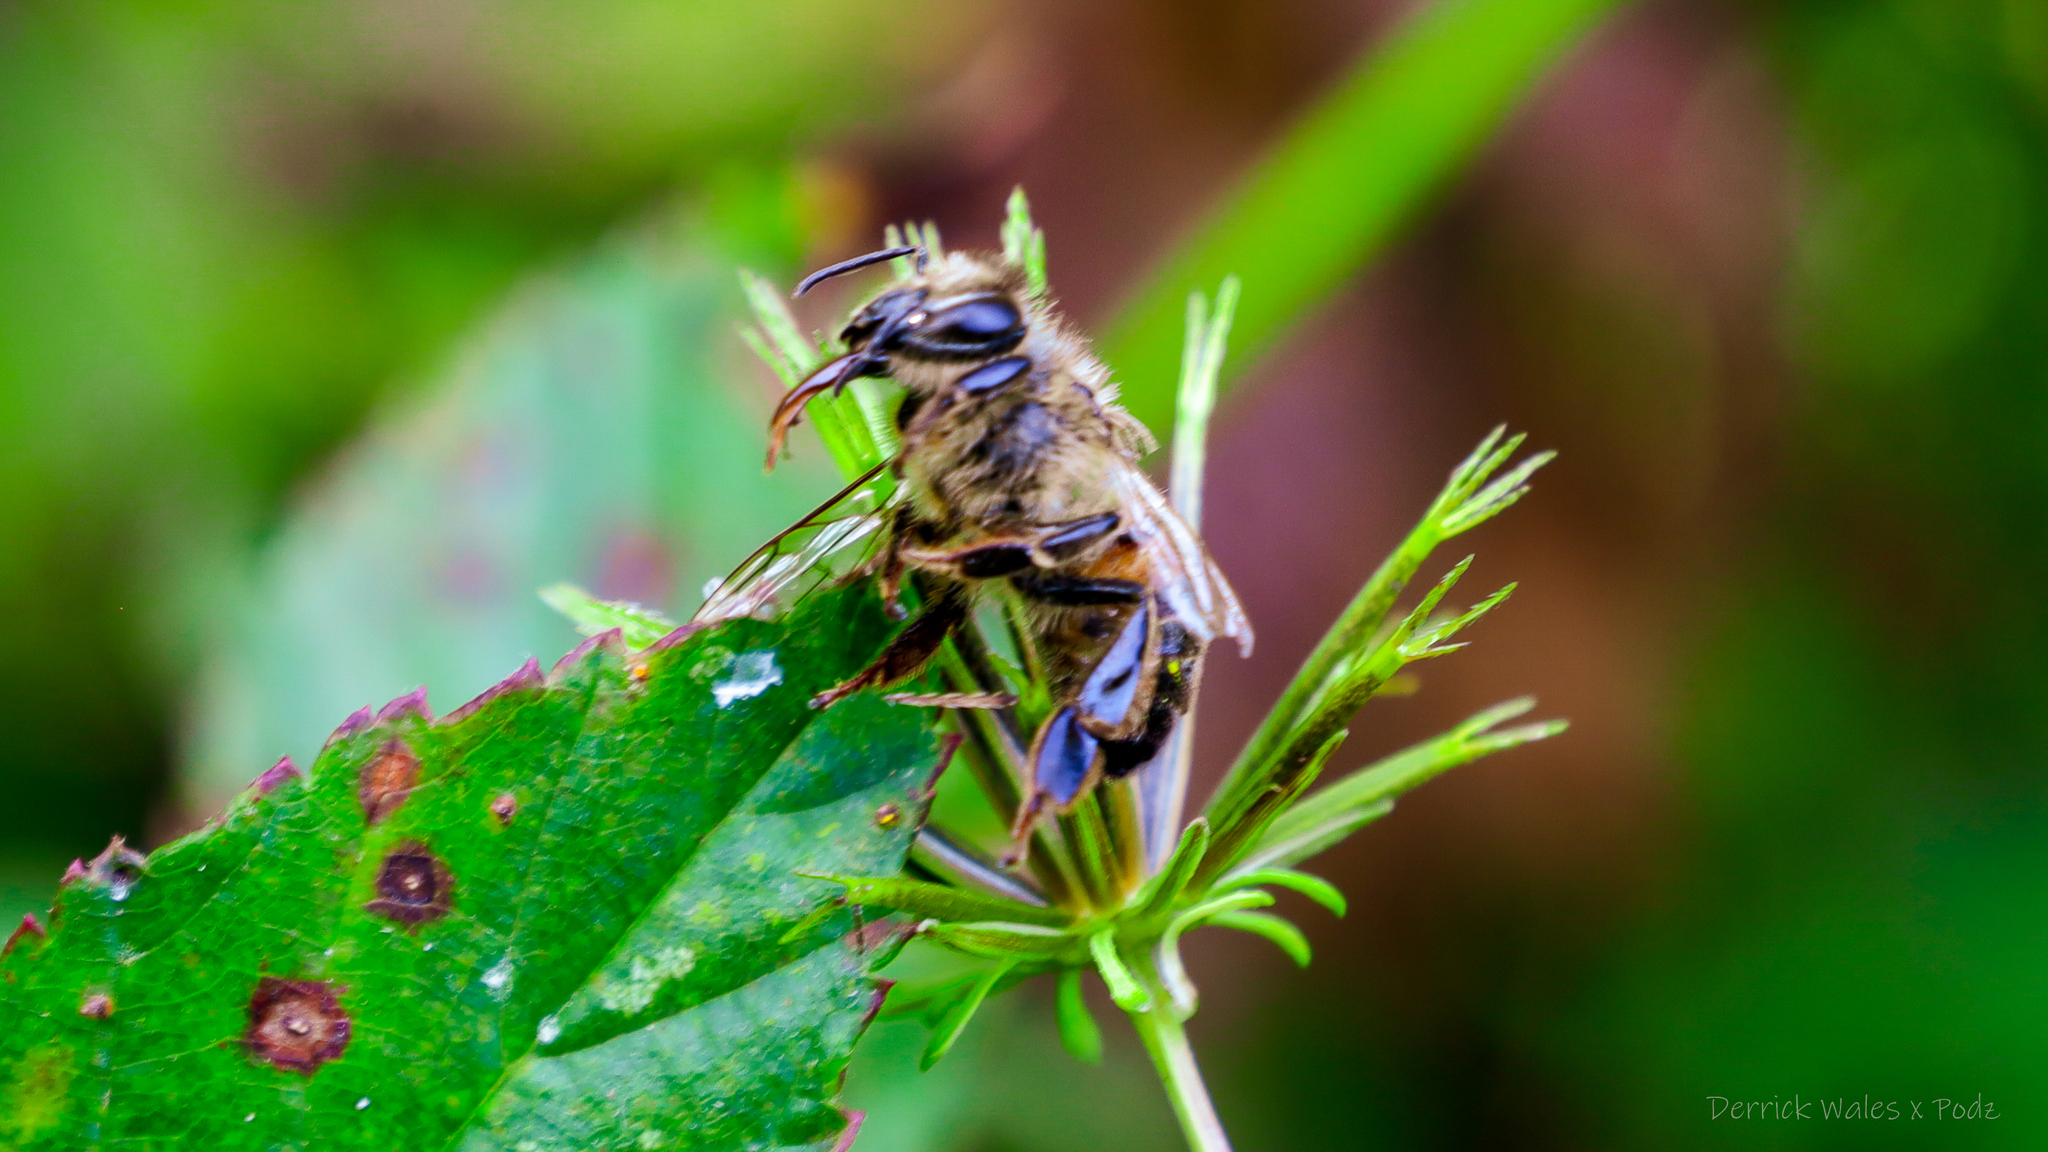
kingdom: Animalia
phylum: Arthropoda
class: Insecta
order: Hymenoptera
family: Apidae
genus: Apis
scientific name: Apis mellifera
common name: Honey bee
